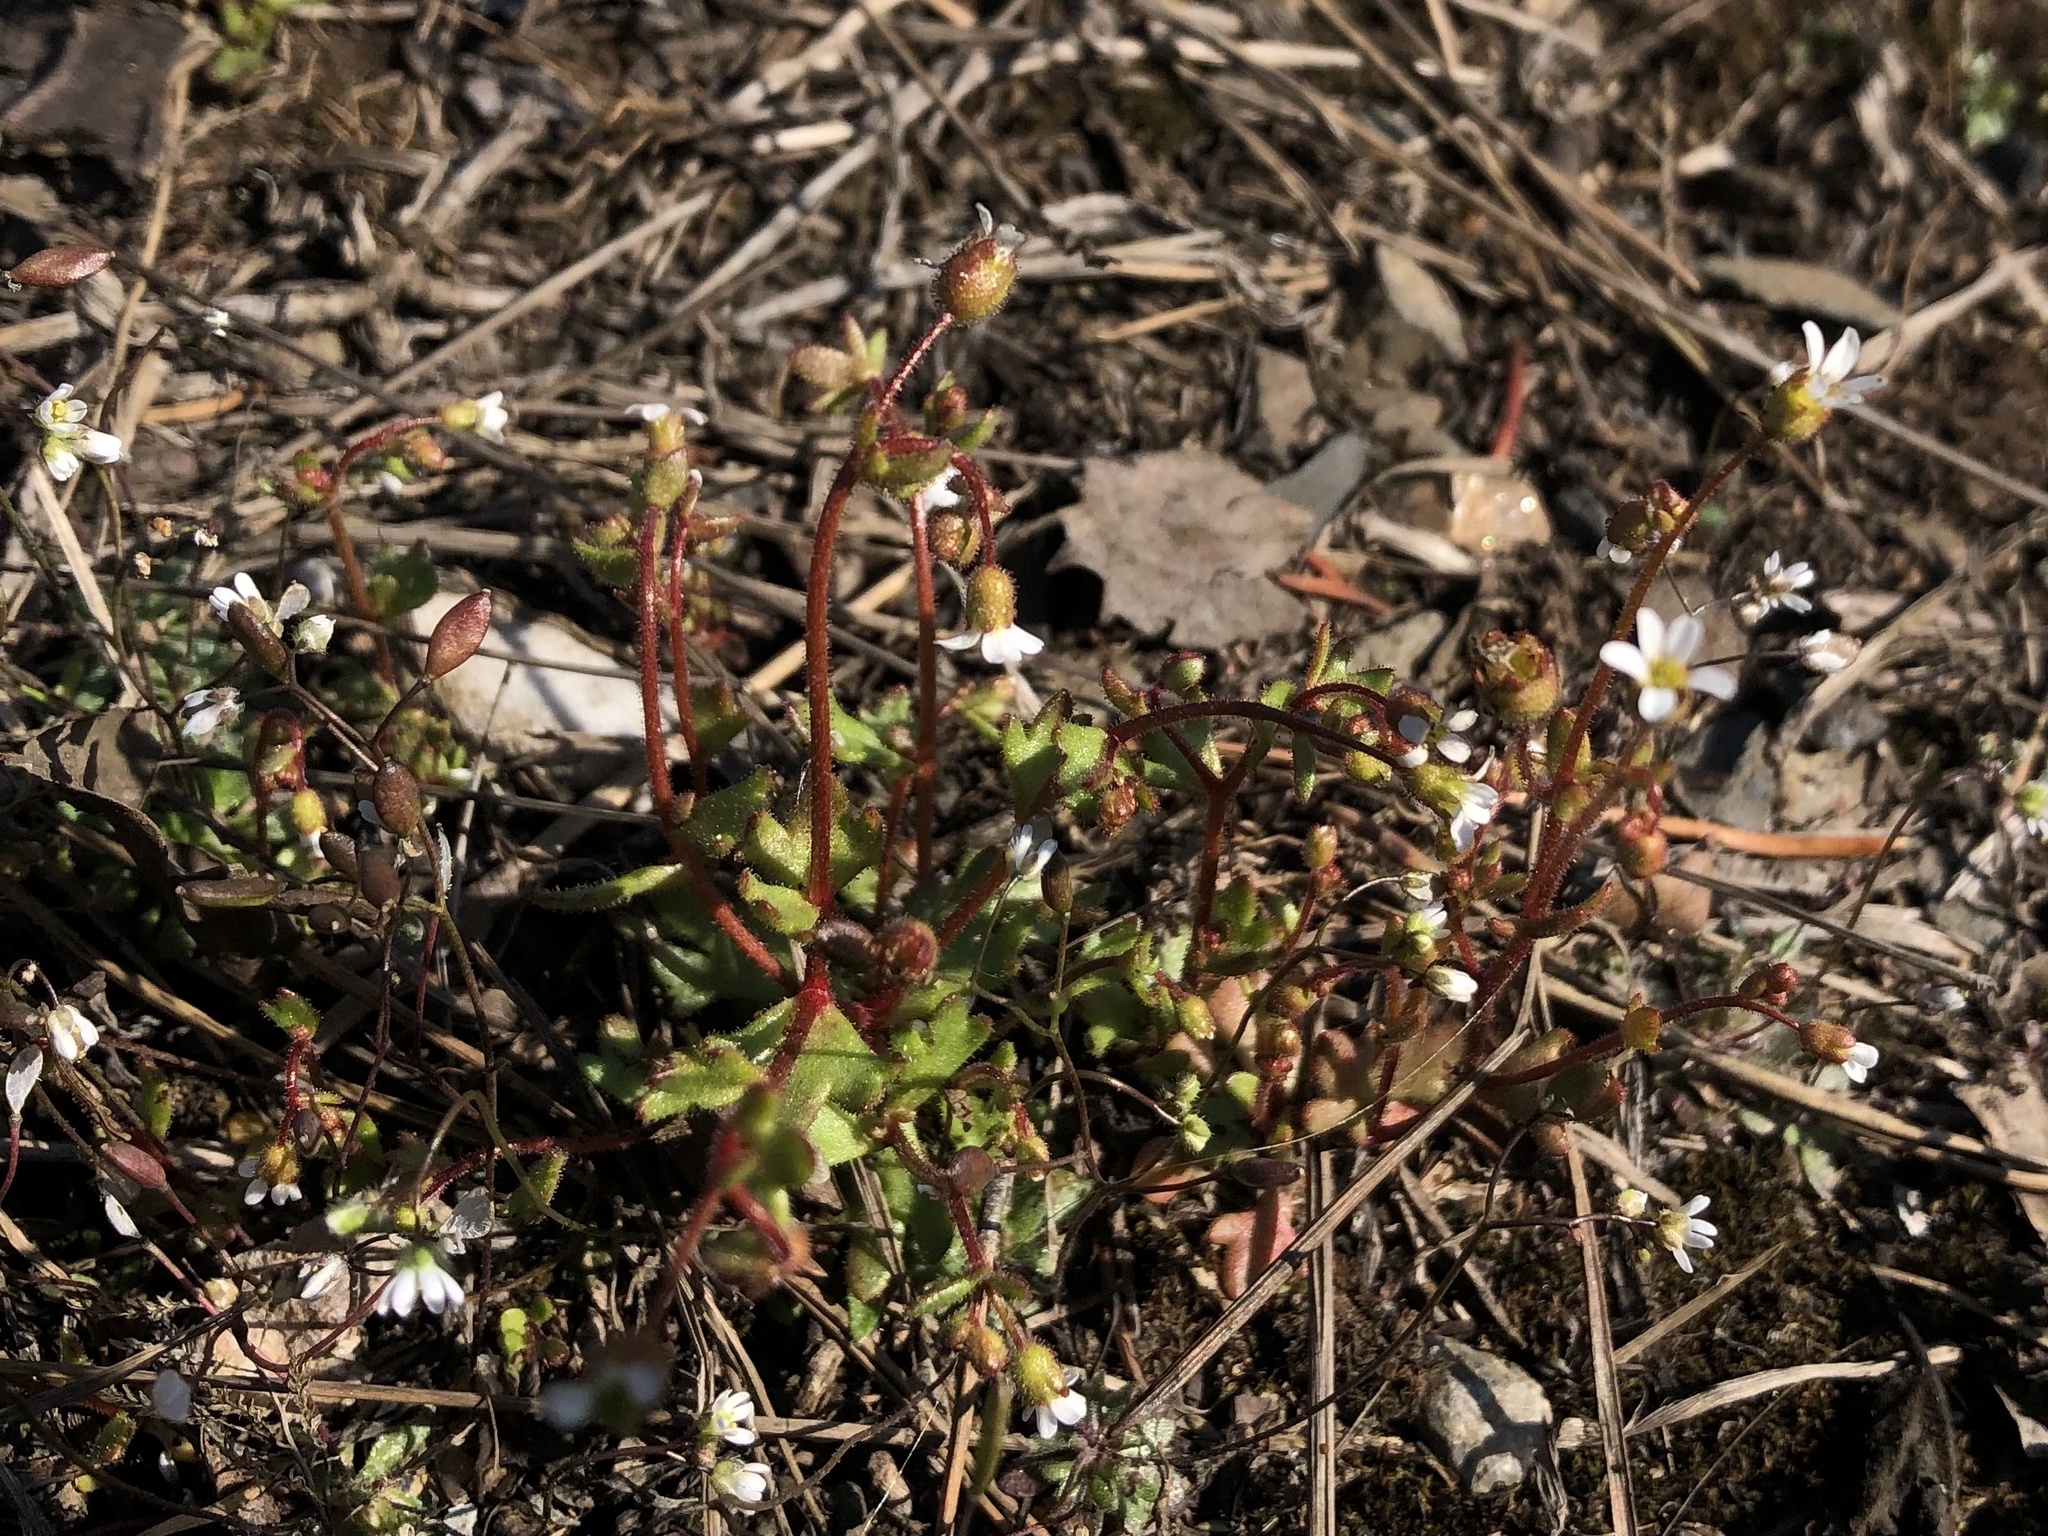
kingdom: Plantae
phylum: Tracheophyta
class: Magnoliopsida
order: Saxifragales
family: Saxifragaceae
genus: Saxifraga
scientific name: Saxifraga tridactylites
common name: Rue-leaved saxifrage
